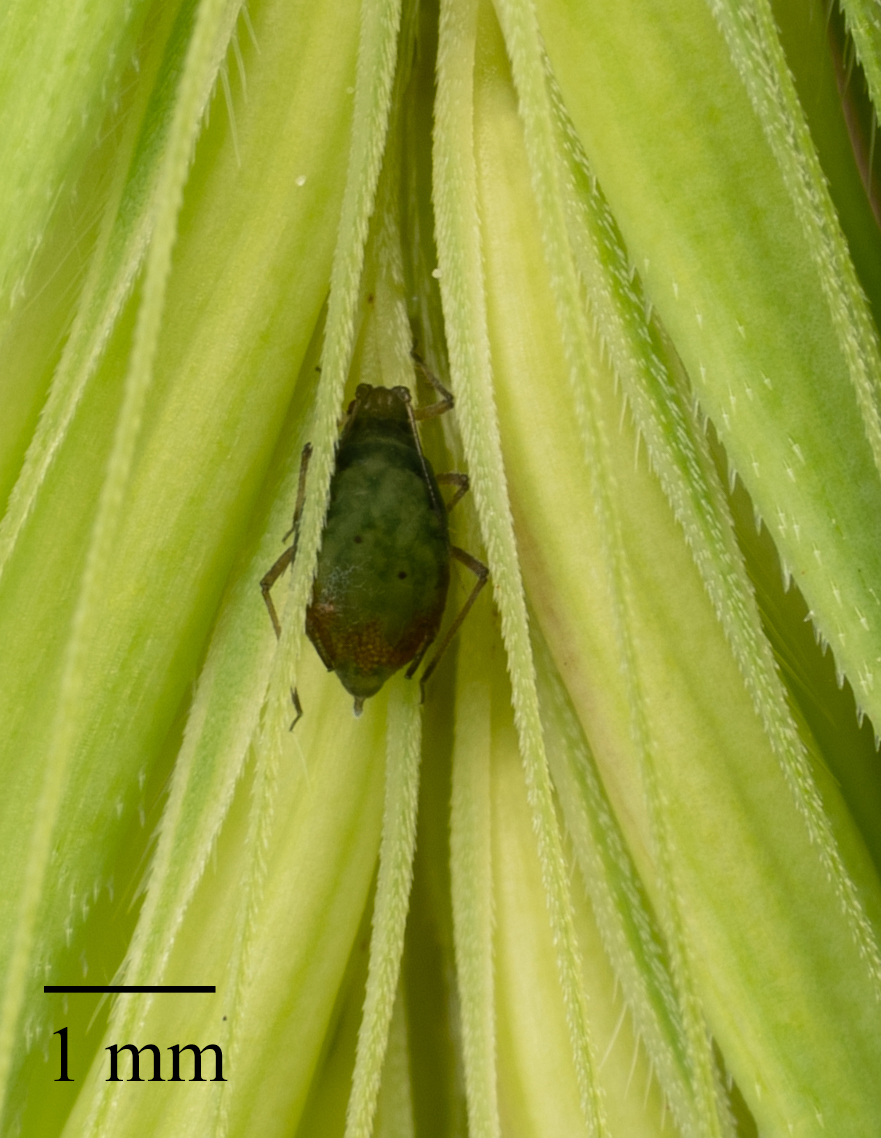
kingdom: Animalia
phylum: Arthropoda
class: Insecta
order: Hemiptera
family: Aphididae
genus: Rhopalosiphum
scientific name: Rhopalosiphum padi
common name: Oat-birdcherry aphid
